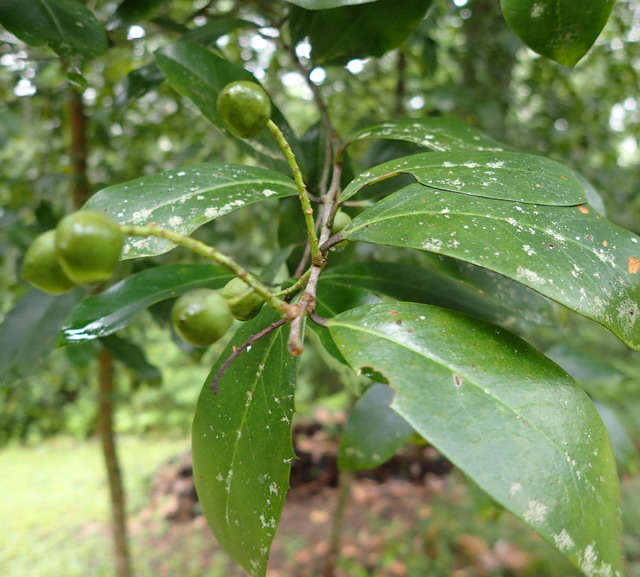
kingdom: Plantae
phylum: Tracheophyta
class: Magnoliopsida
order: Rosales
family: Rosaceae
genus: Prunus
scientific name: Prunus caroliniana
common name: Carolina laurel cherry
